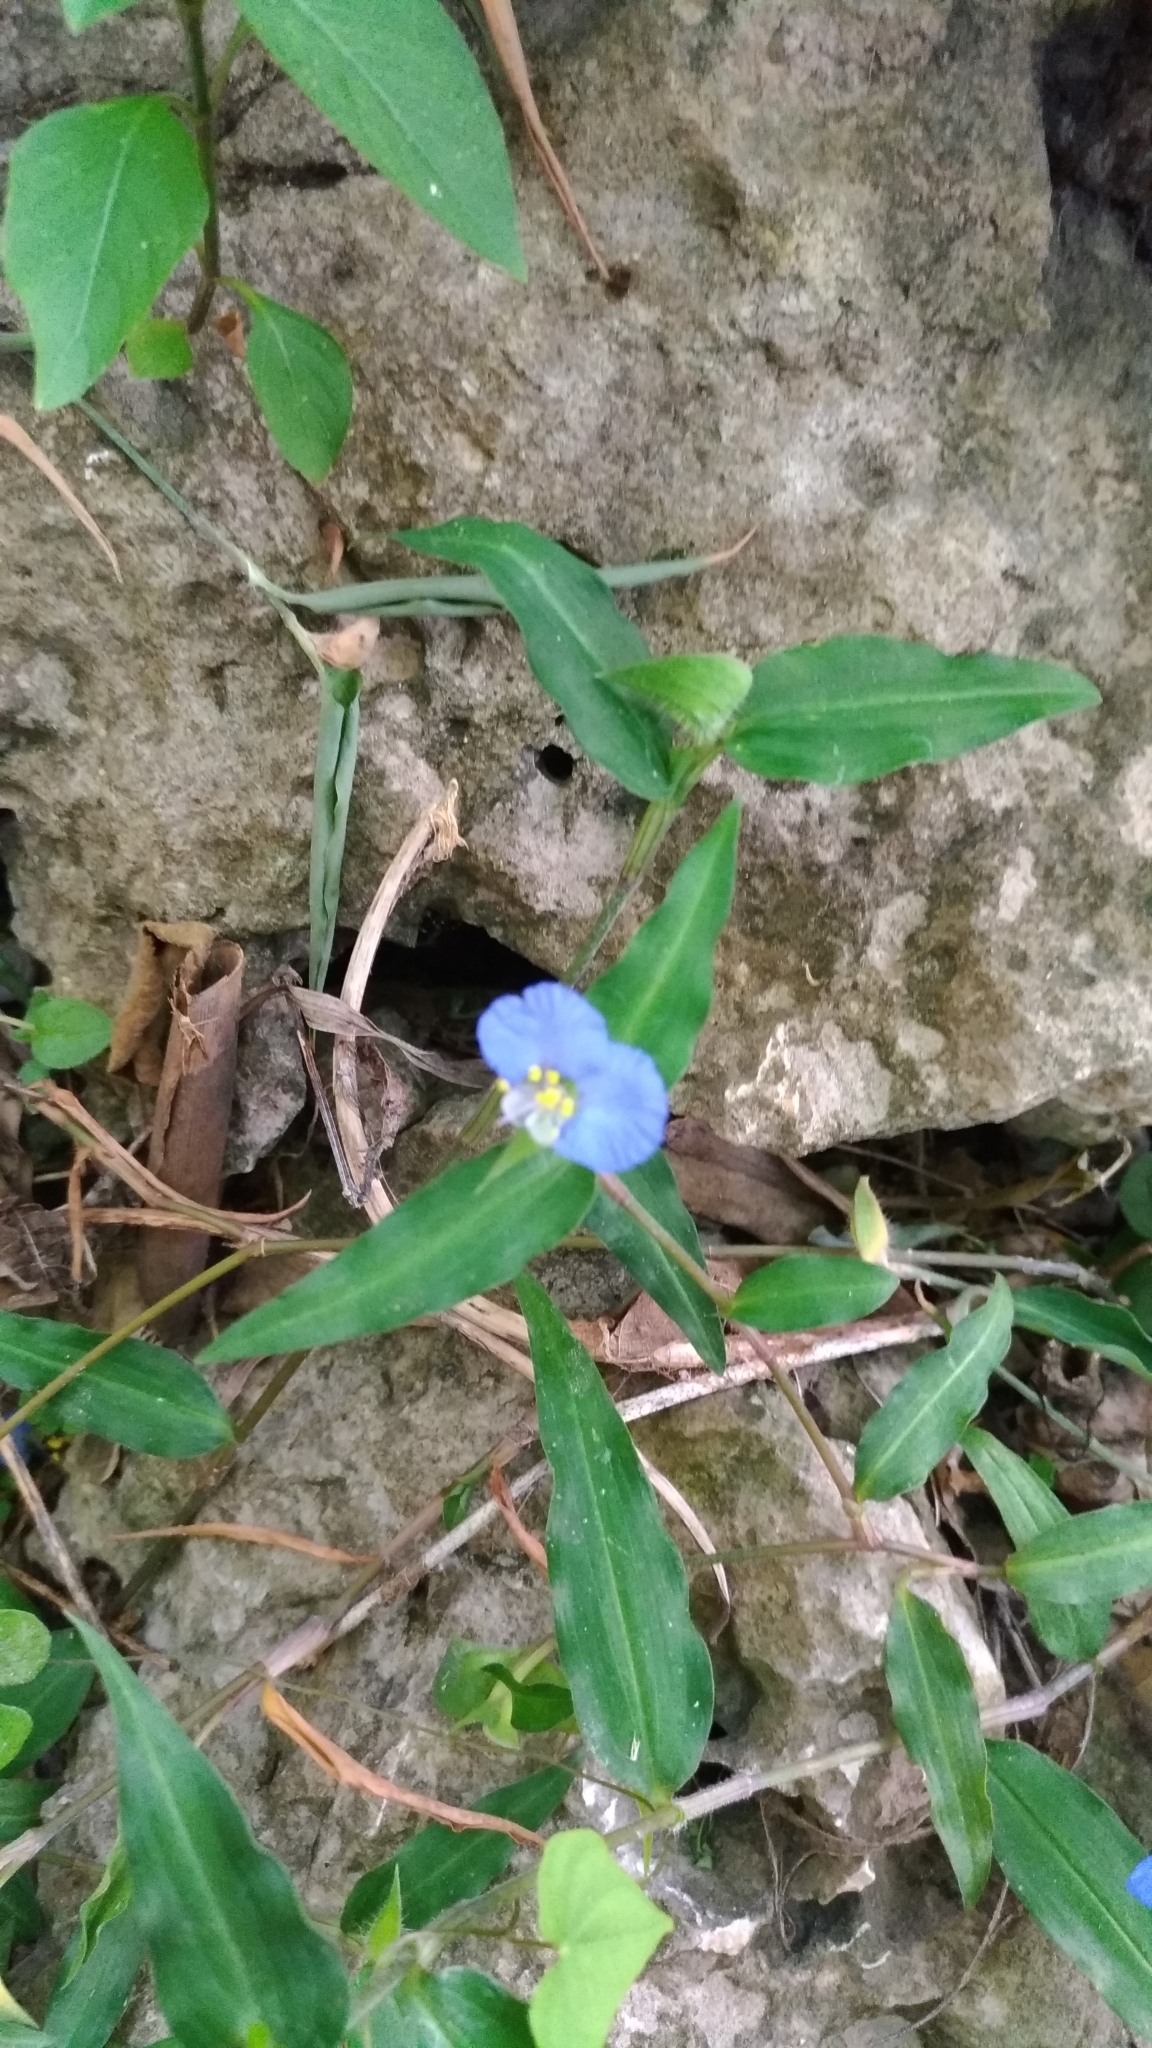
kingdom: Plantae
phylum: Tracheophyta
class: Liliopsida
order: Commelinales
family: Commelinaceae
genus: Commelina
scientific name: Commelina auriculata
